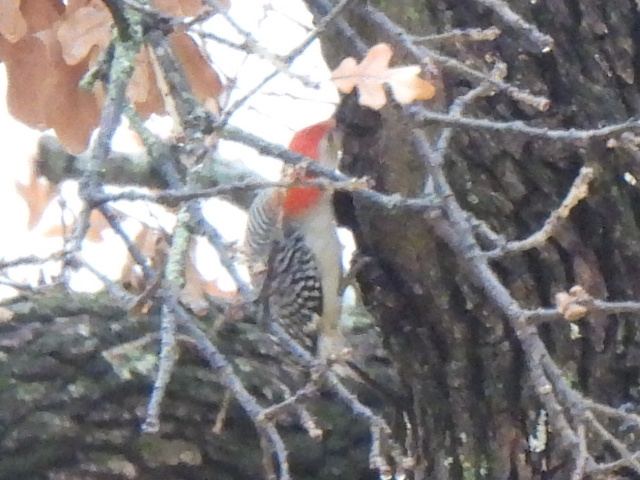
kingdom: Animalia
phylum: Chordata
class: Aves
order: Piciformes
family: Picidae
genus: Melanerpes
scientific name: Melanerpes carolinus
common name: Red-bellied woodpecker
